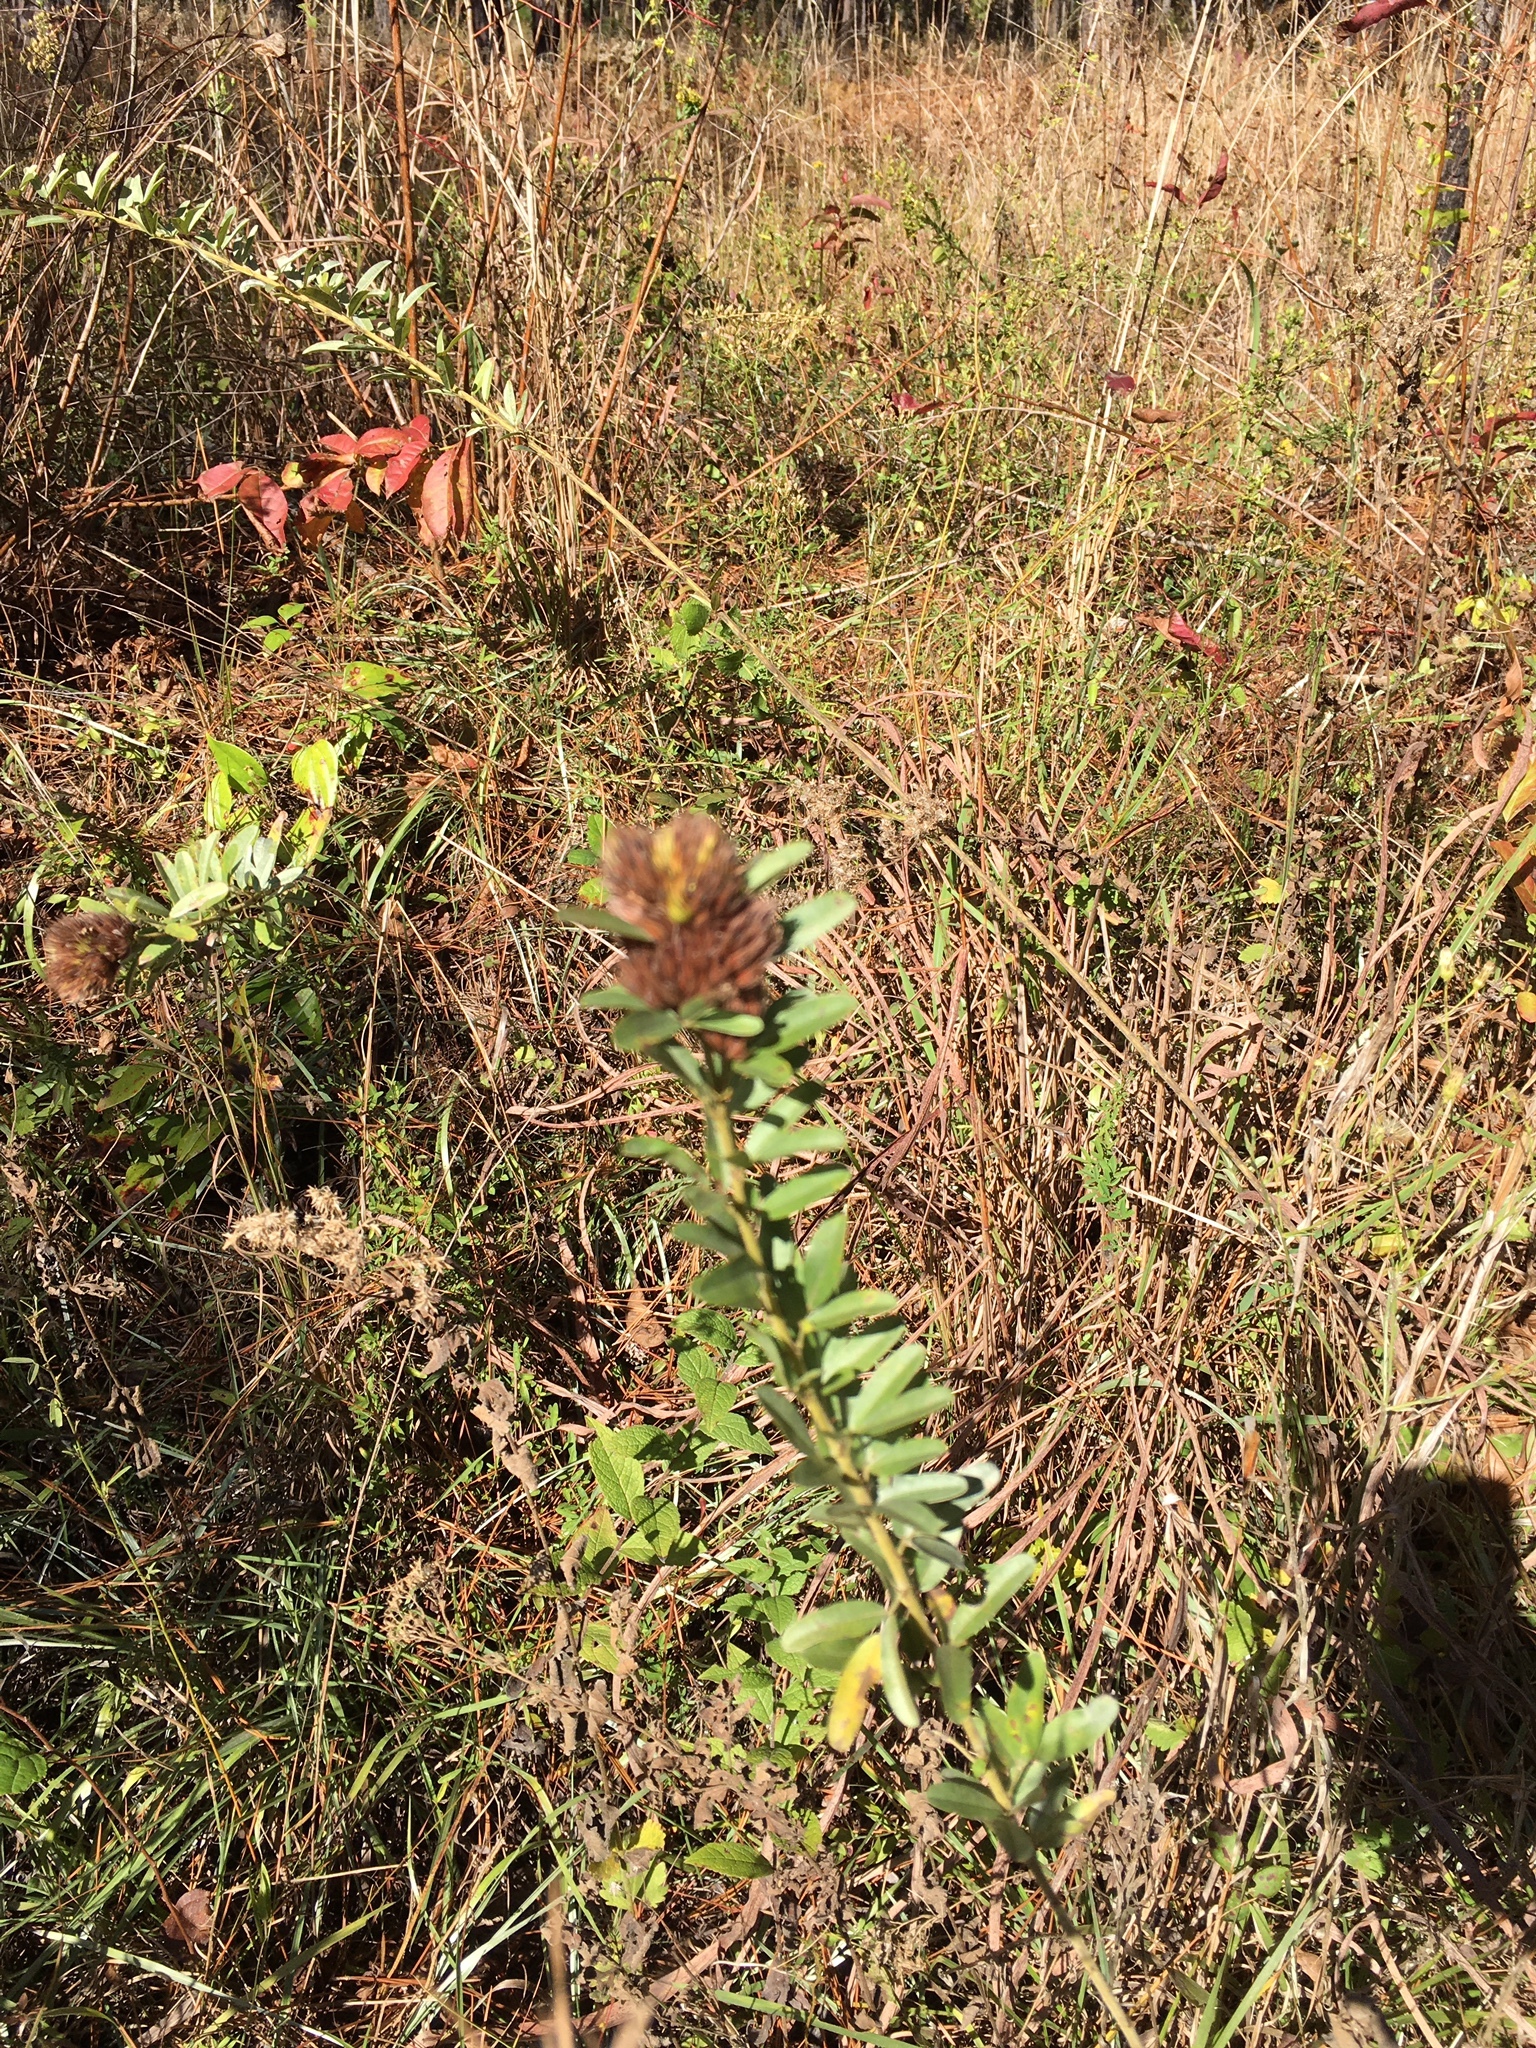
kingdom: Plantae
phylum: Tracheophyta
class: Magnoliopsida
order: Fabales
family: Fabaceae
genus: Lespedeza
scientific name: Lespedeza capitata
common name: Dusty clover
